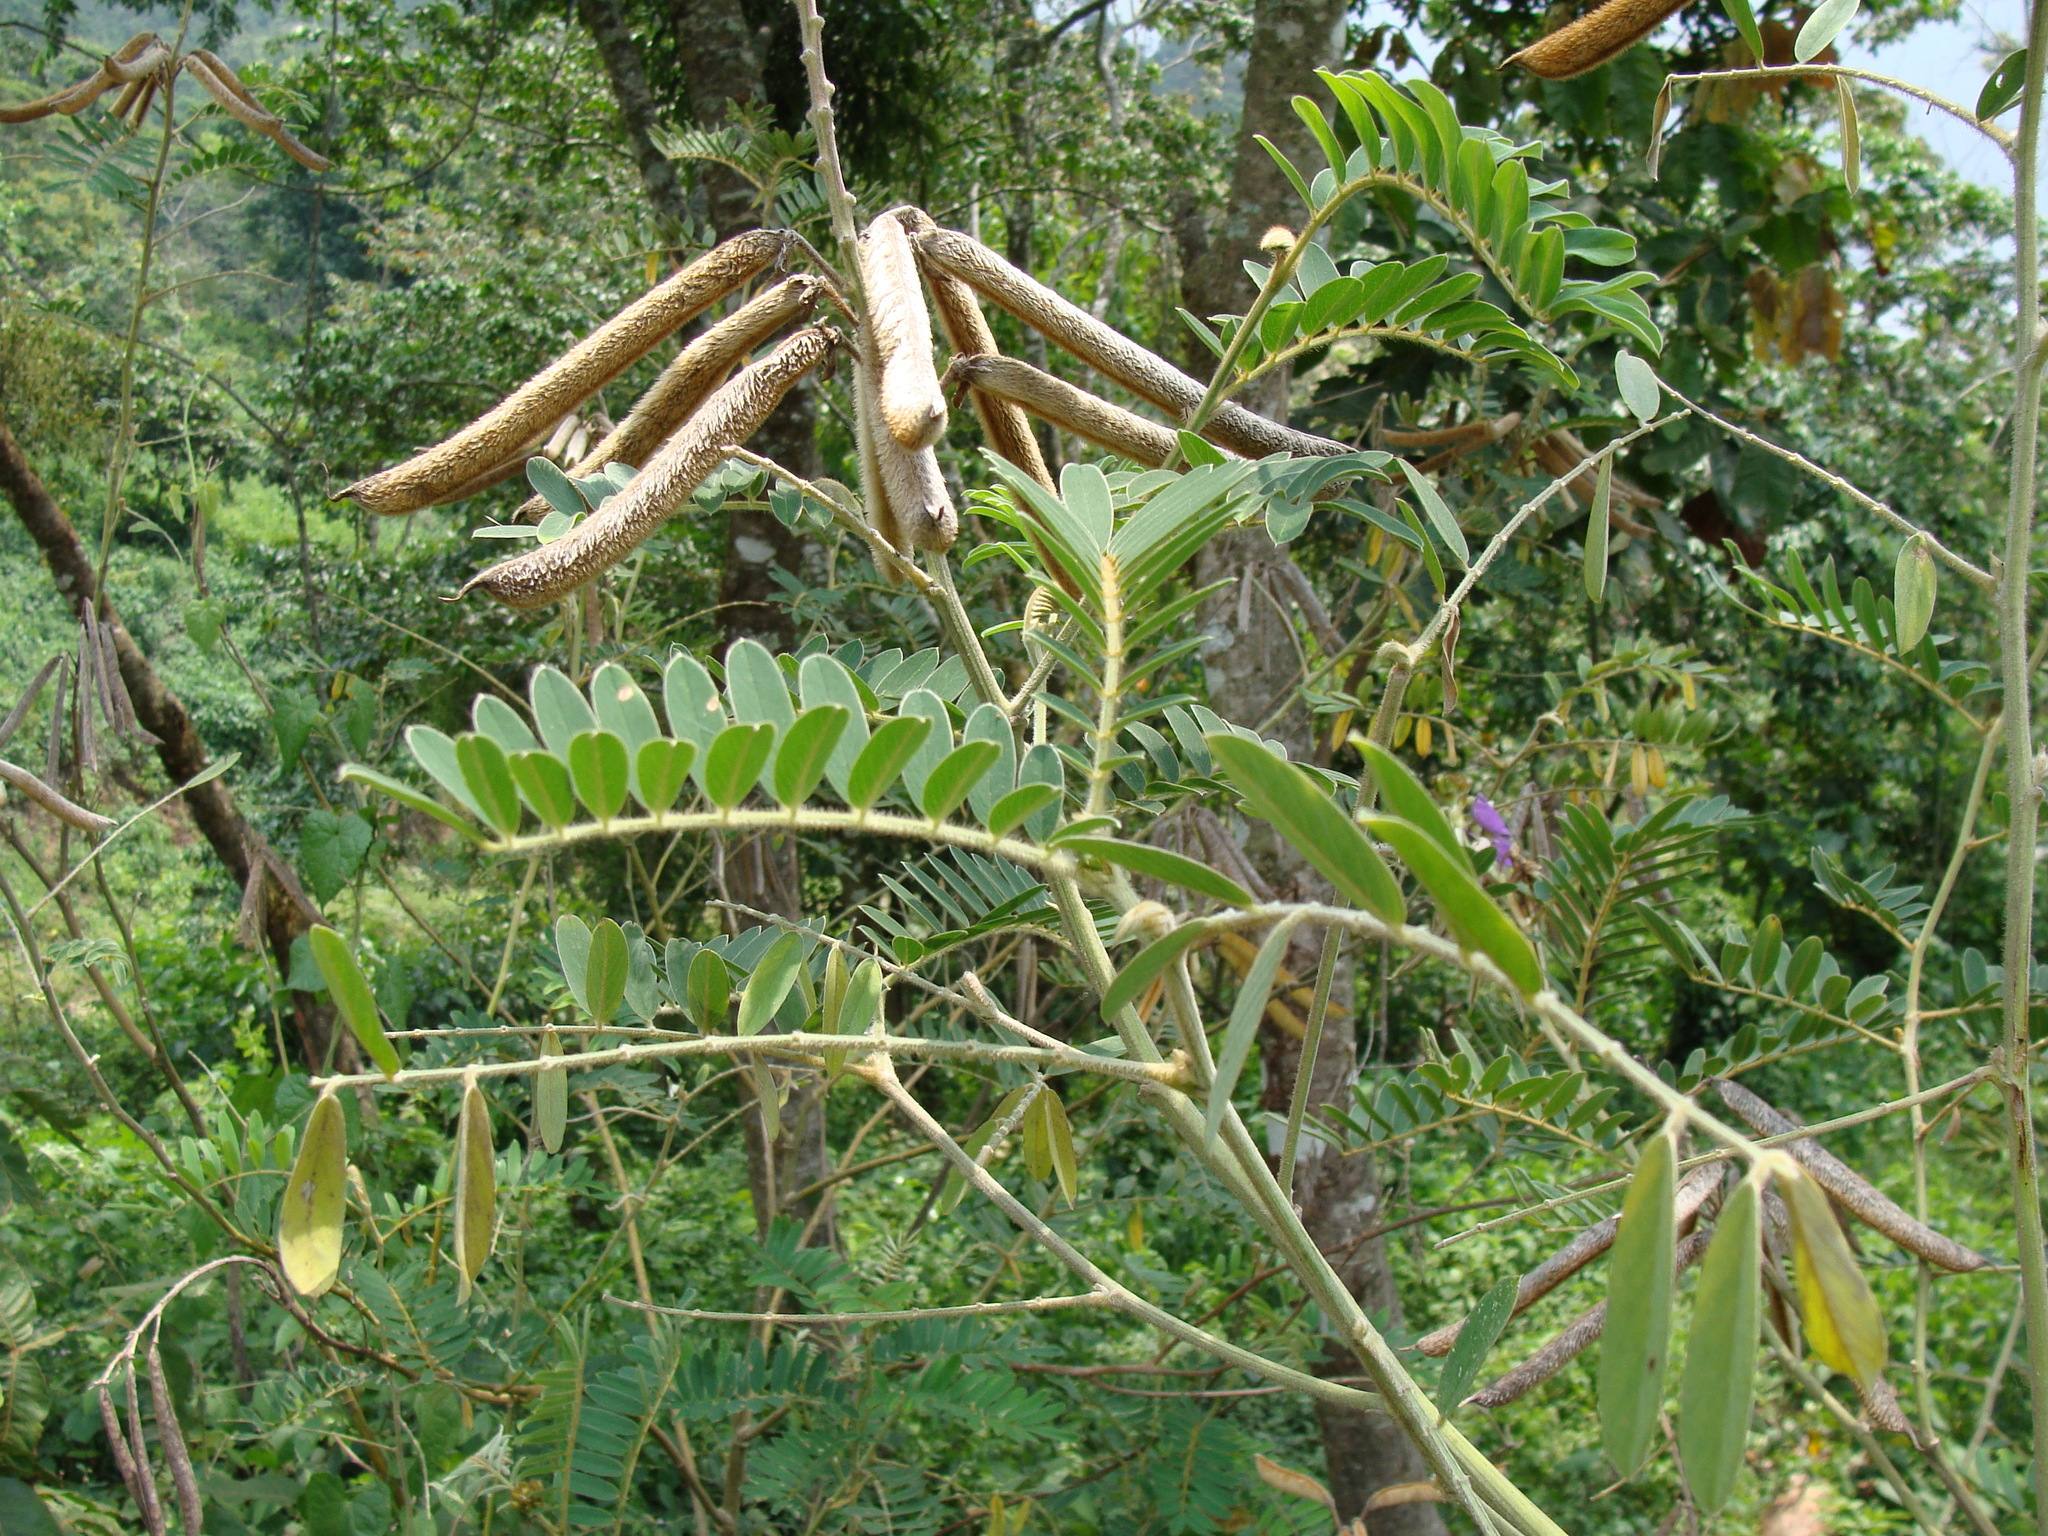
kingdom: Plantae
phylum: Tracheophyta
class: Magnoliopsida
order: Fabales
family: Fabaceae
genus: Tephrosia
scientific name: Tephrosia vogelii
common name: Vogel tephrosia
